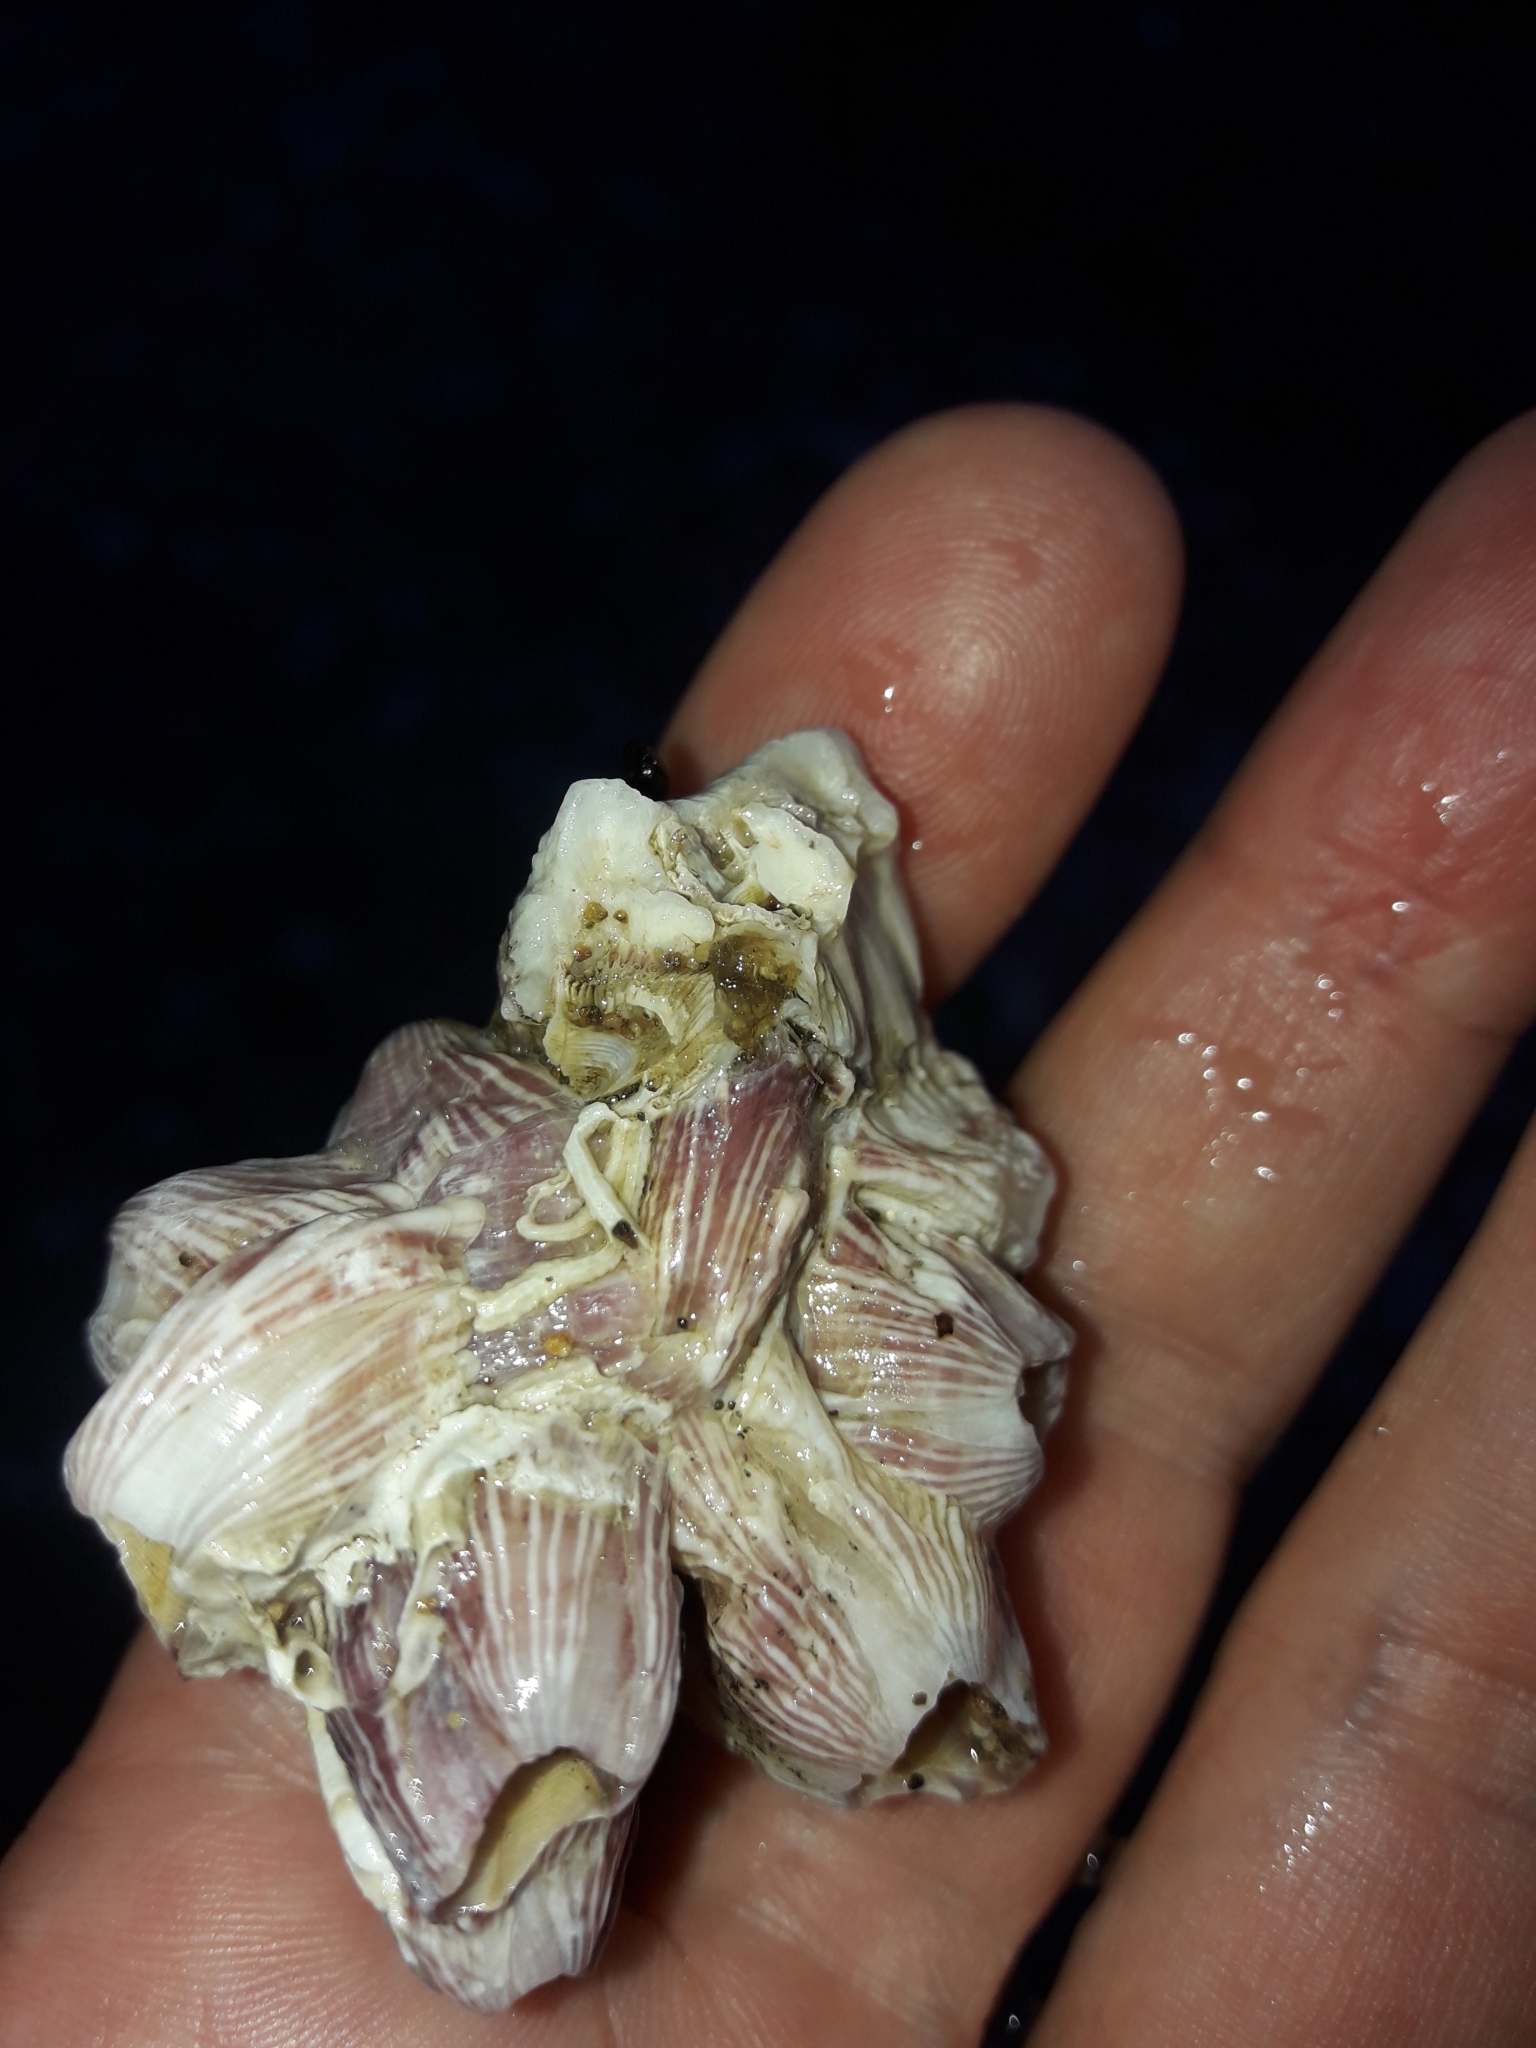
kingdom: Animalia
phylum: Arthropoda
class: Maxillopoda
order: Sessilia
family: Balanidae
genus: Balanus
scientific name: Balanus trigonus
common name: Triangle barnacle
